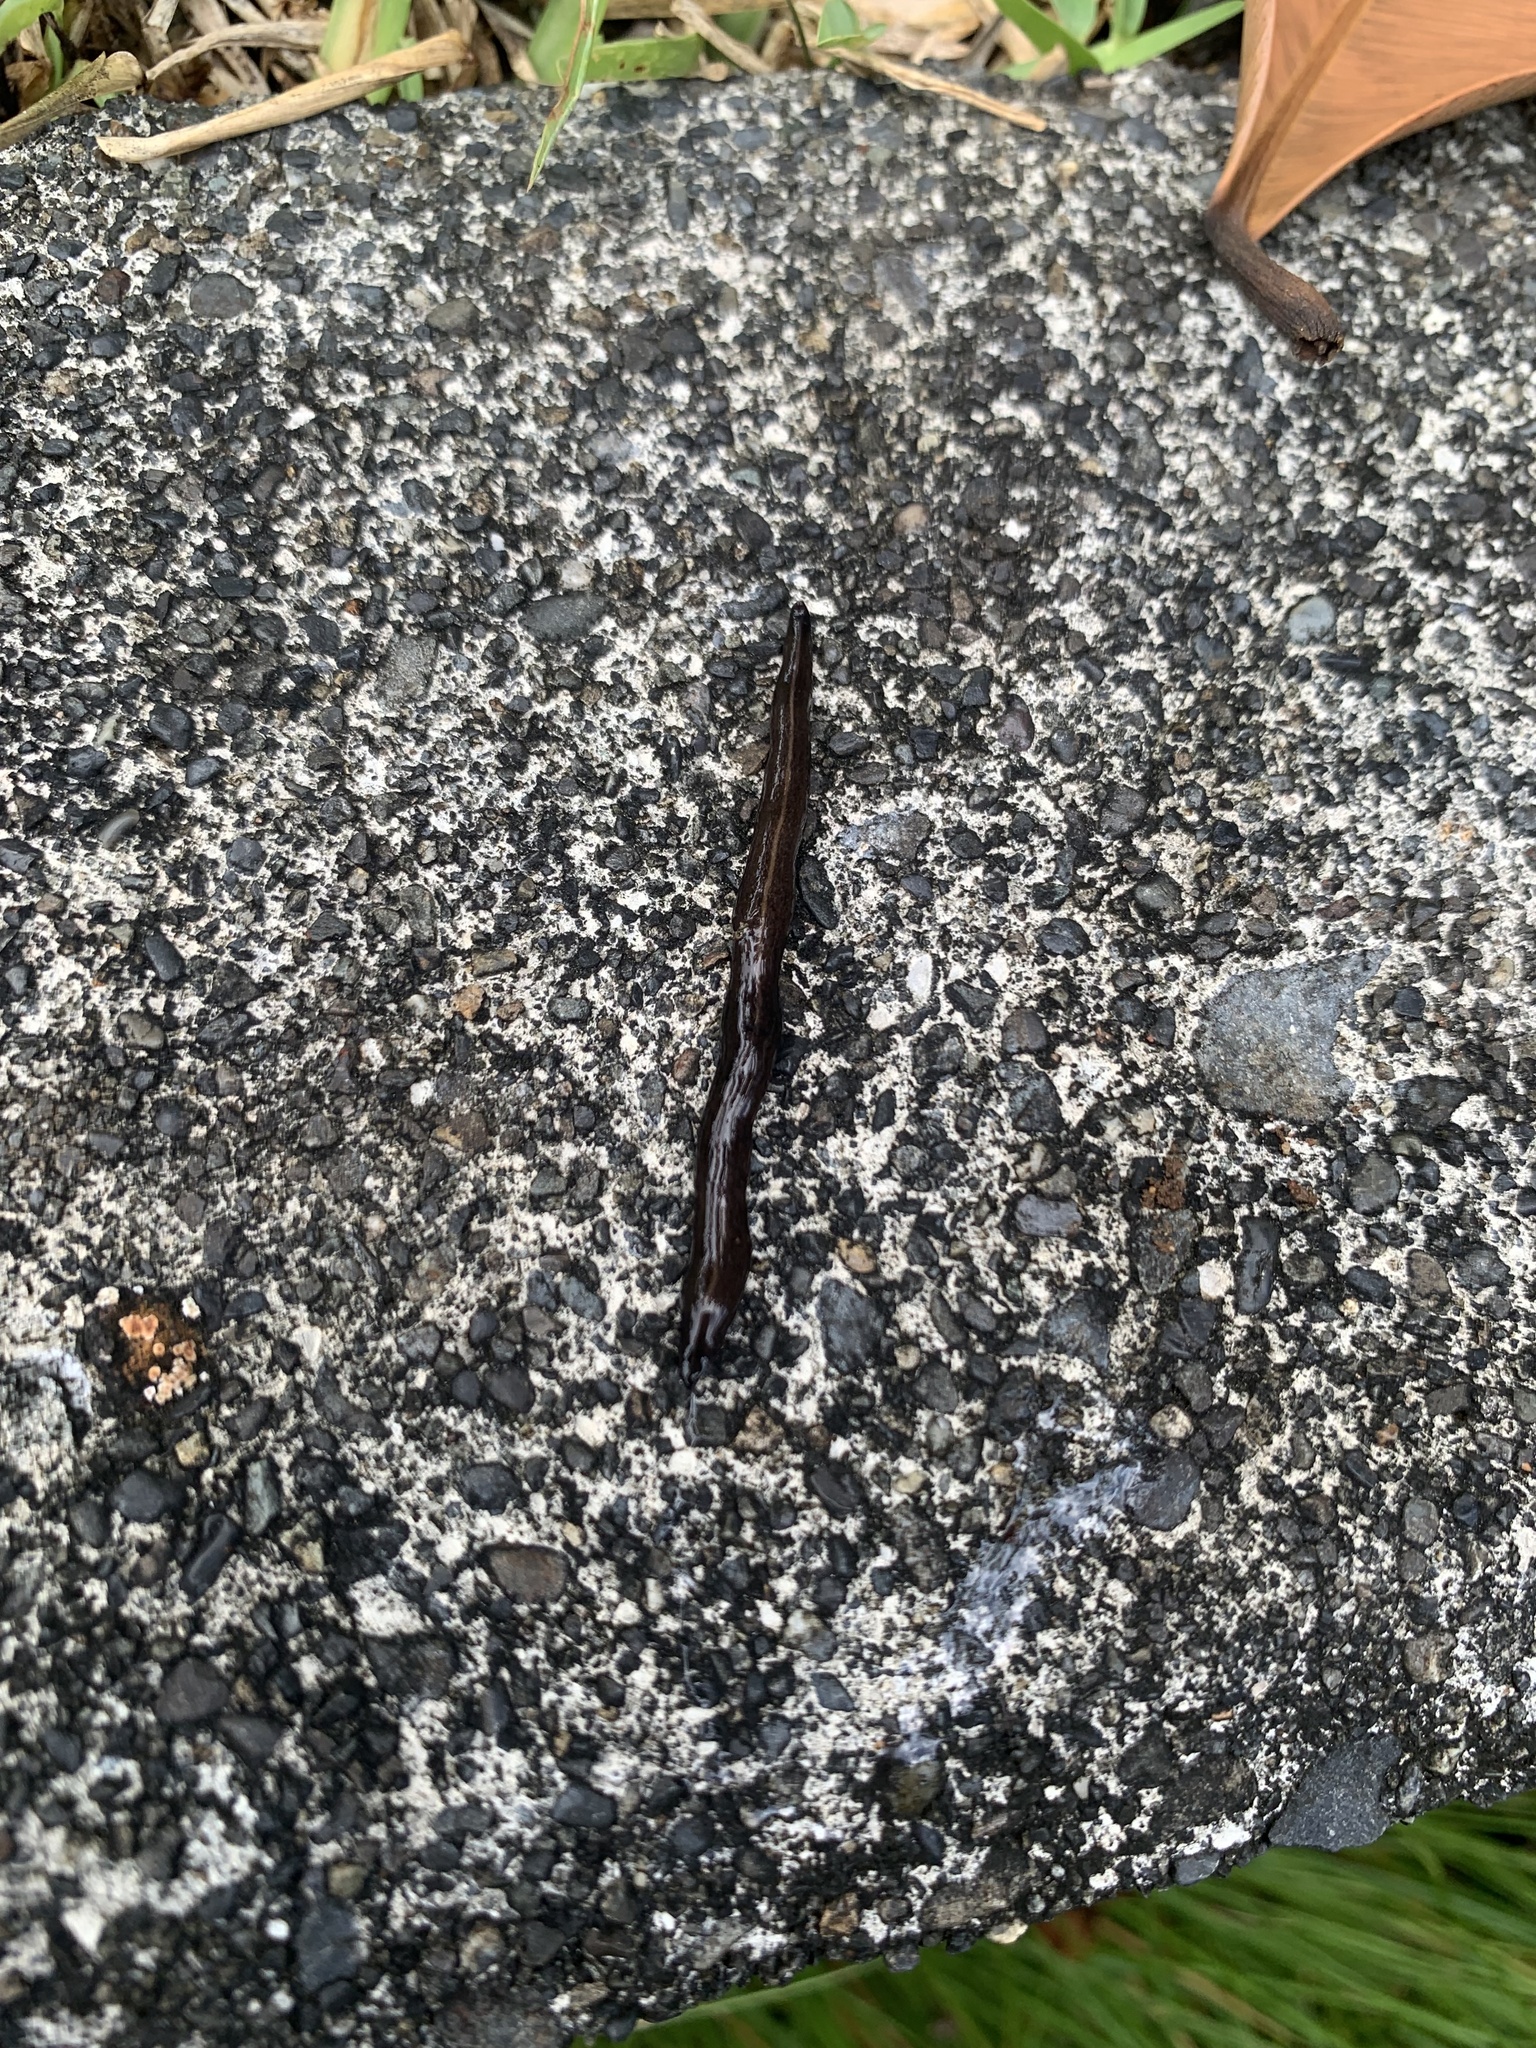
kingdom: Animalia
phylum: Platyhelminthes
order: Tricladida
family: Geoplanidae
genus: Platydemus
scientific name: Platydemus manokwari
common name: New guinea flatworm
